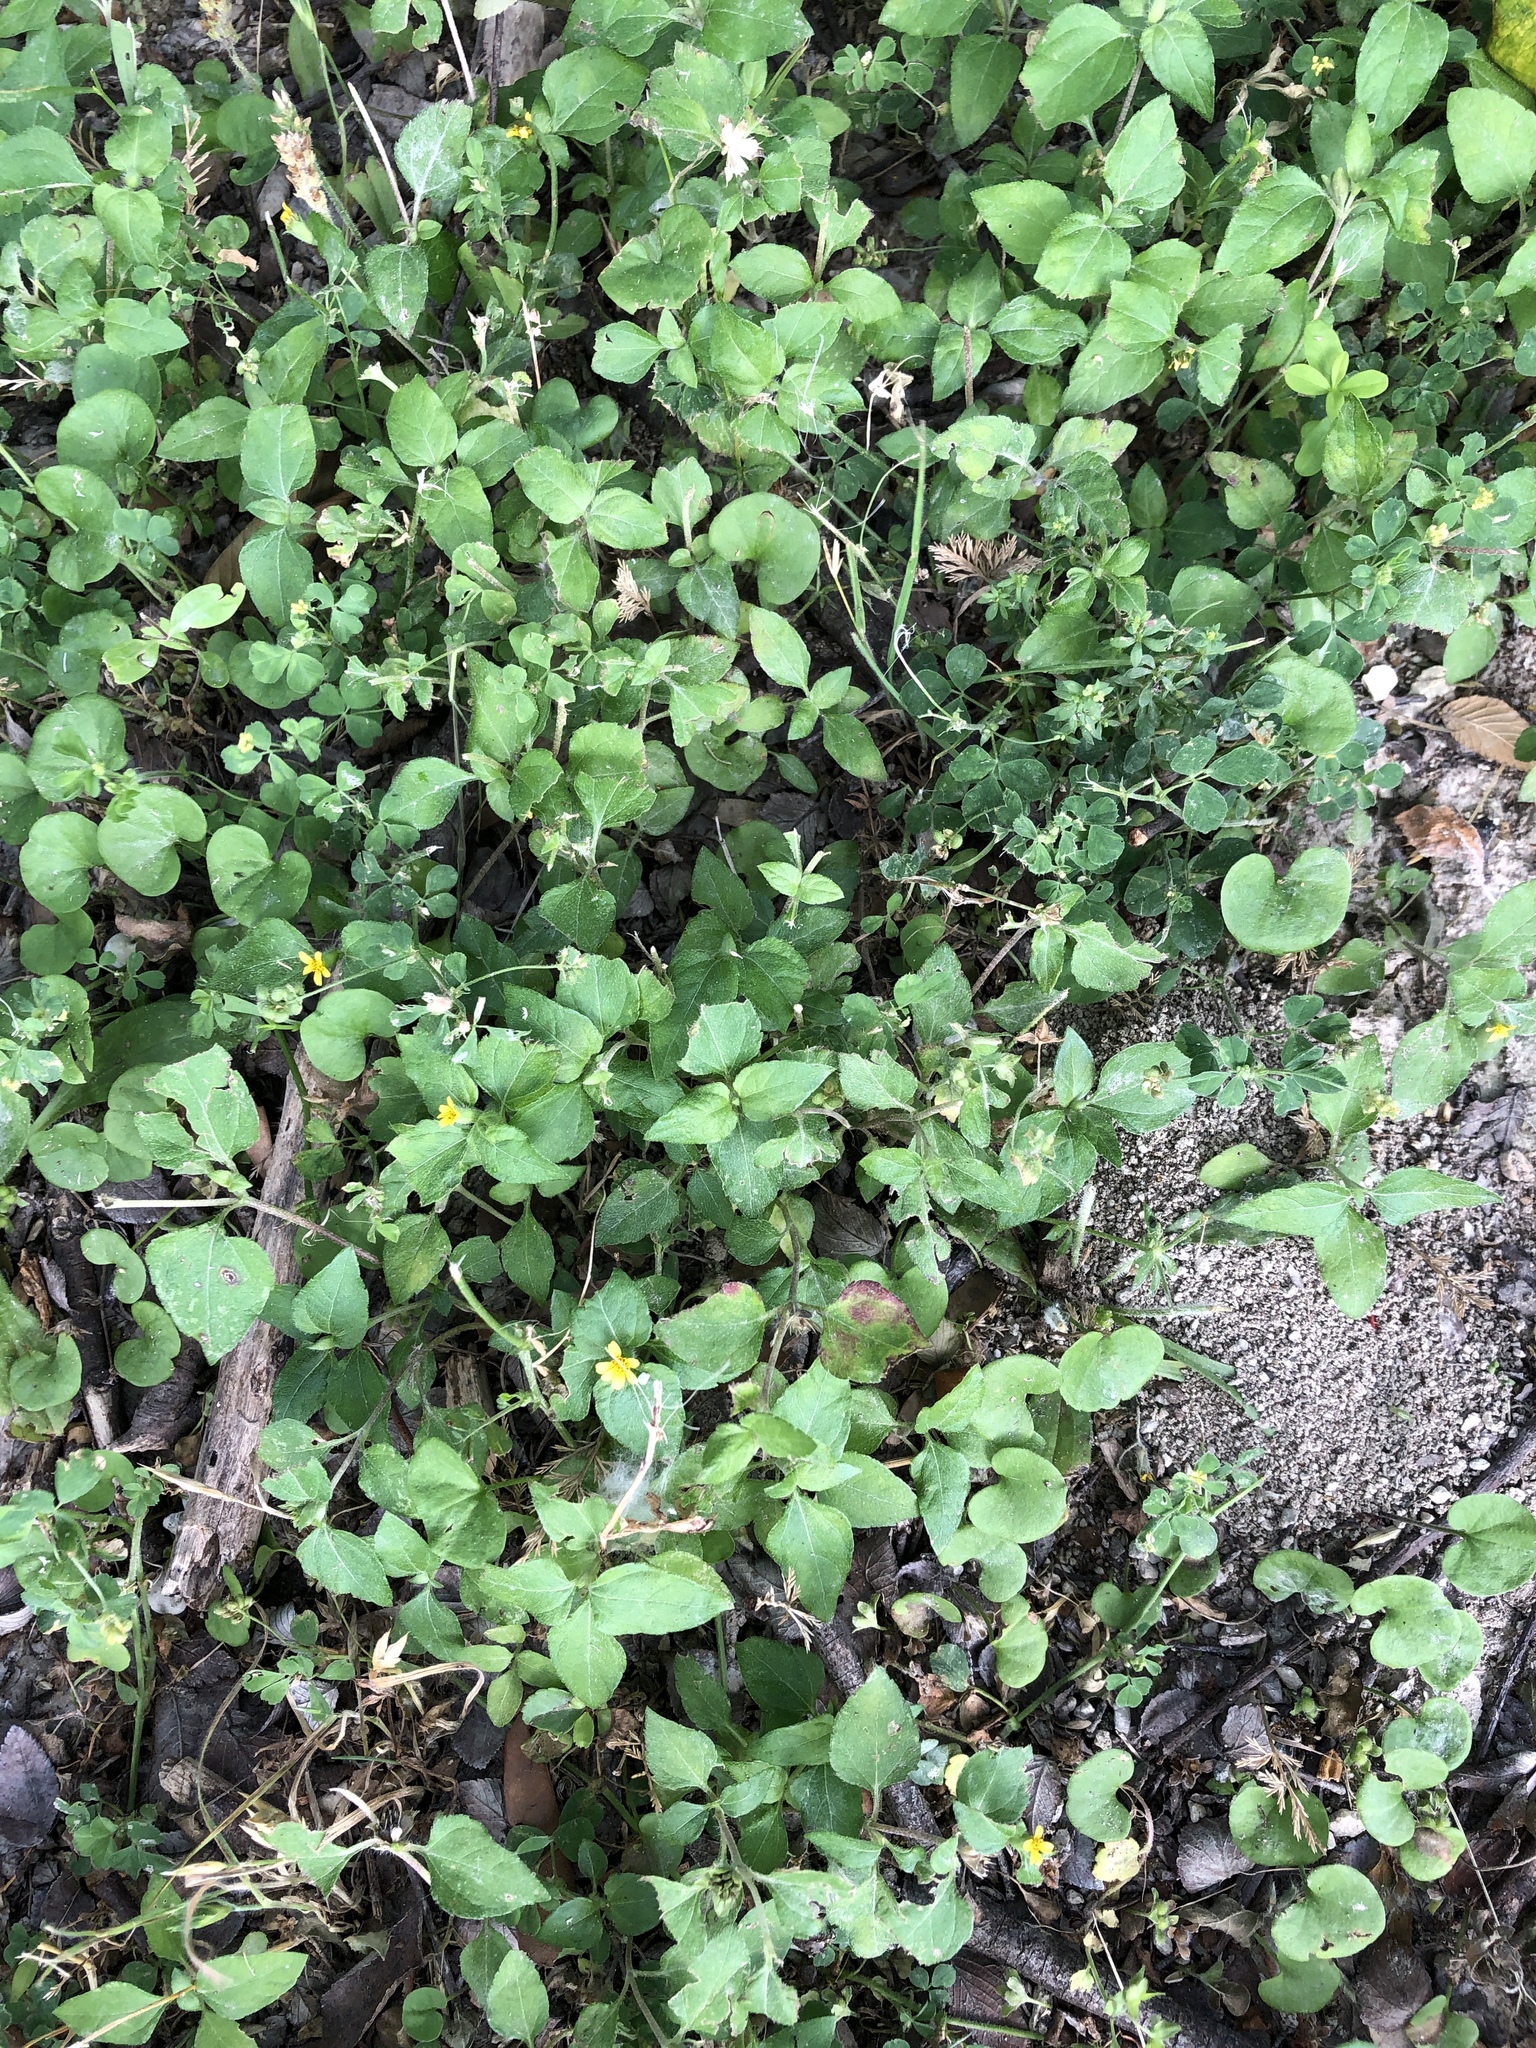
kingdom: Plantae
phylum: Tracheophyta
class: Magnoliopsida
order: Asterales
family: Asteraceae
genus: Calyptocarpus
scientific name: Calyptocarpus vialis
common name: Straggler daisy
